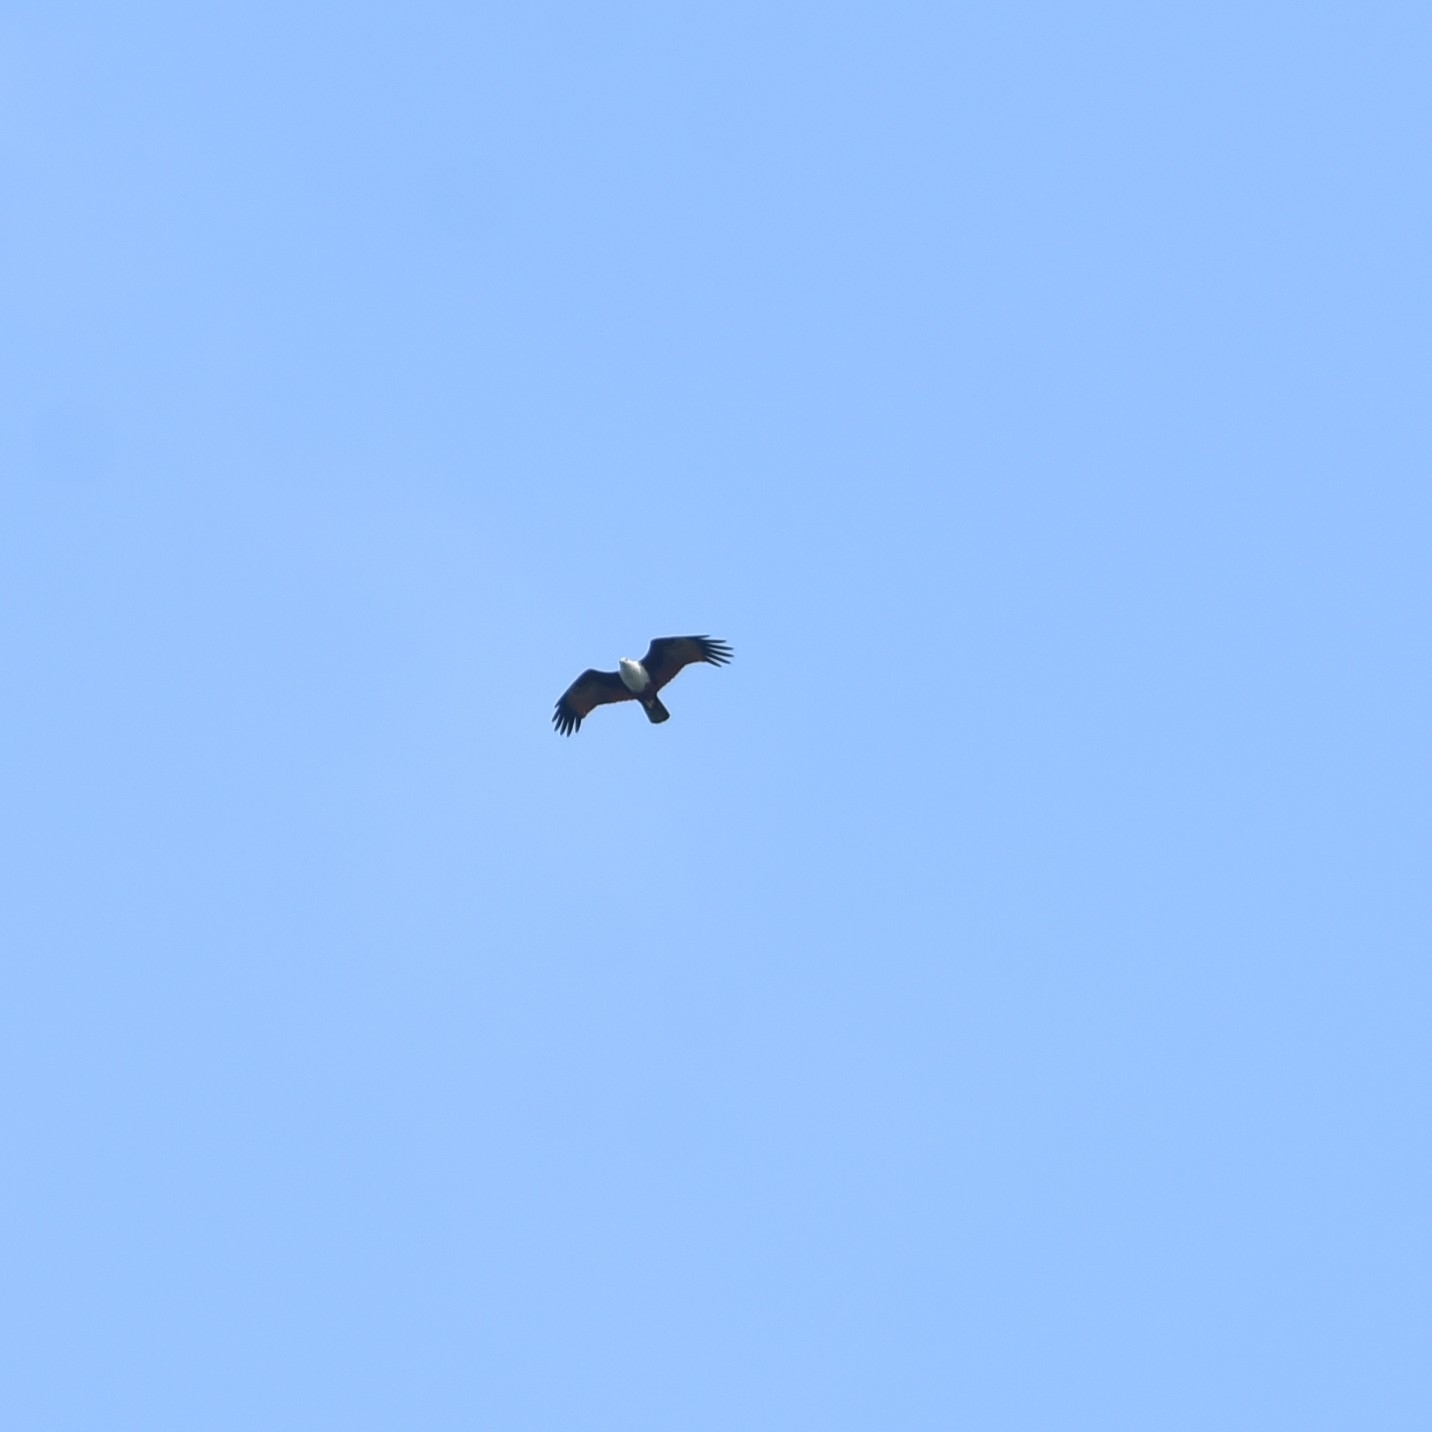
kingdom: Animalia
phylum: Chordata
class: Aves
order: Accipitriformes
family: Accipitridae
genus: Haliastur
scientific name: Haliastur indus
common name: Brahminy kite
